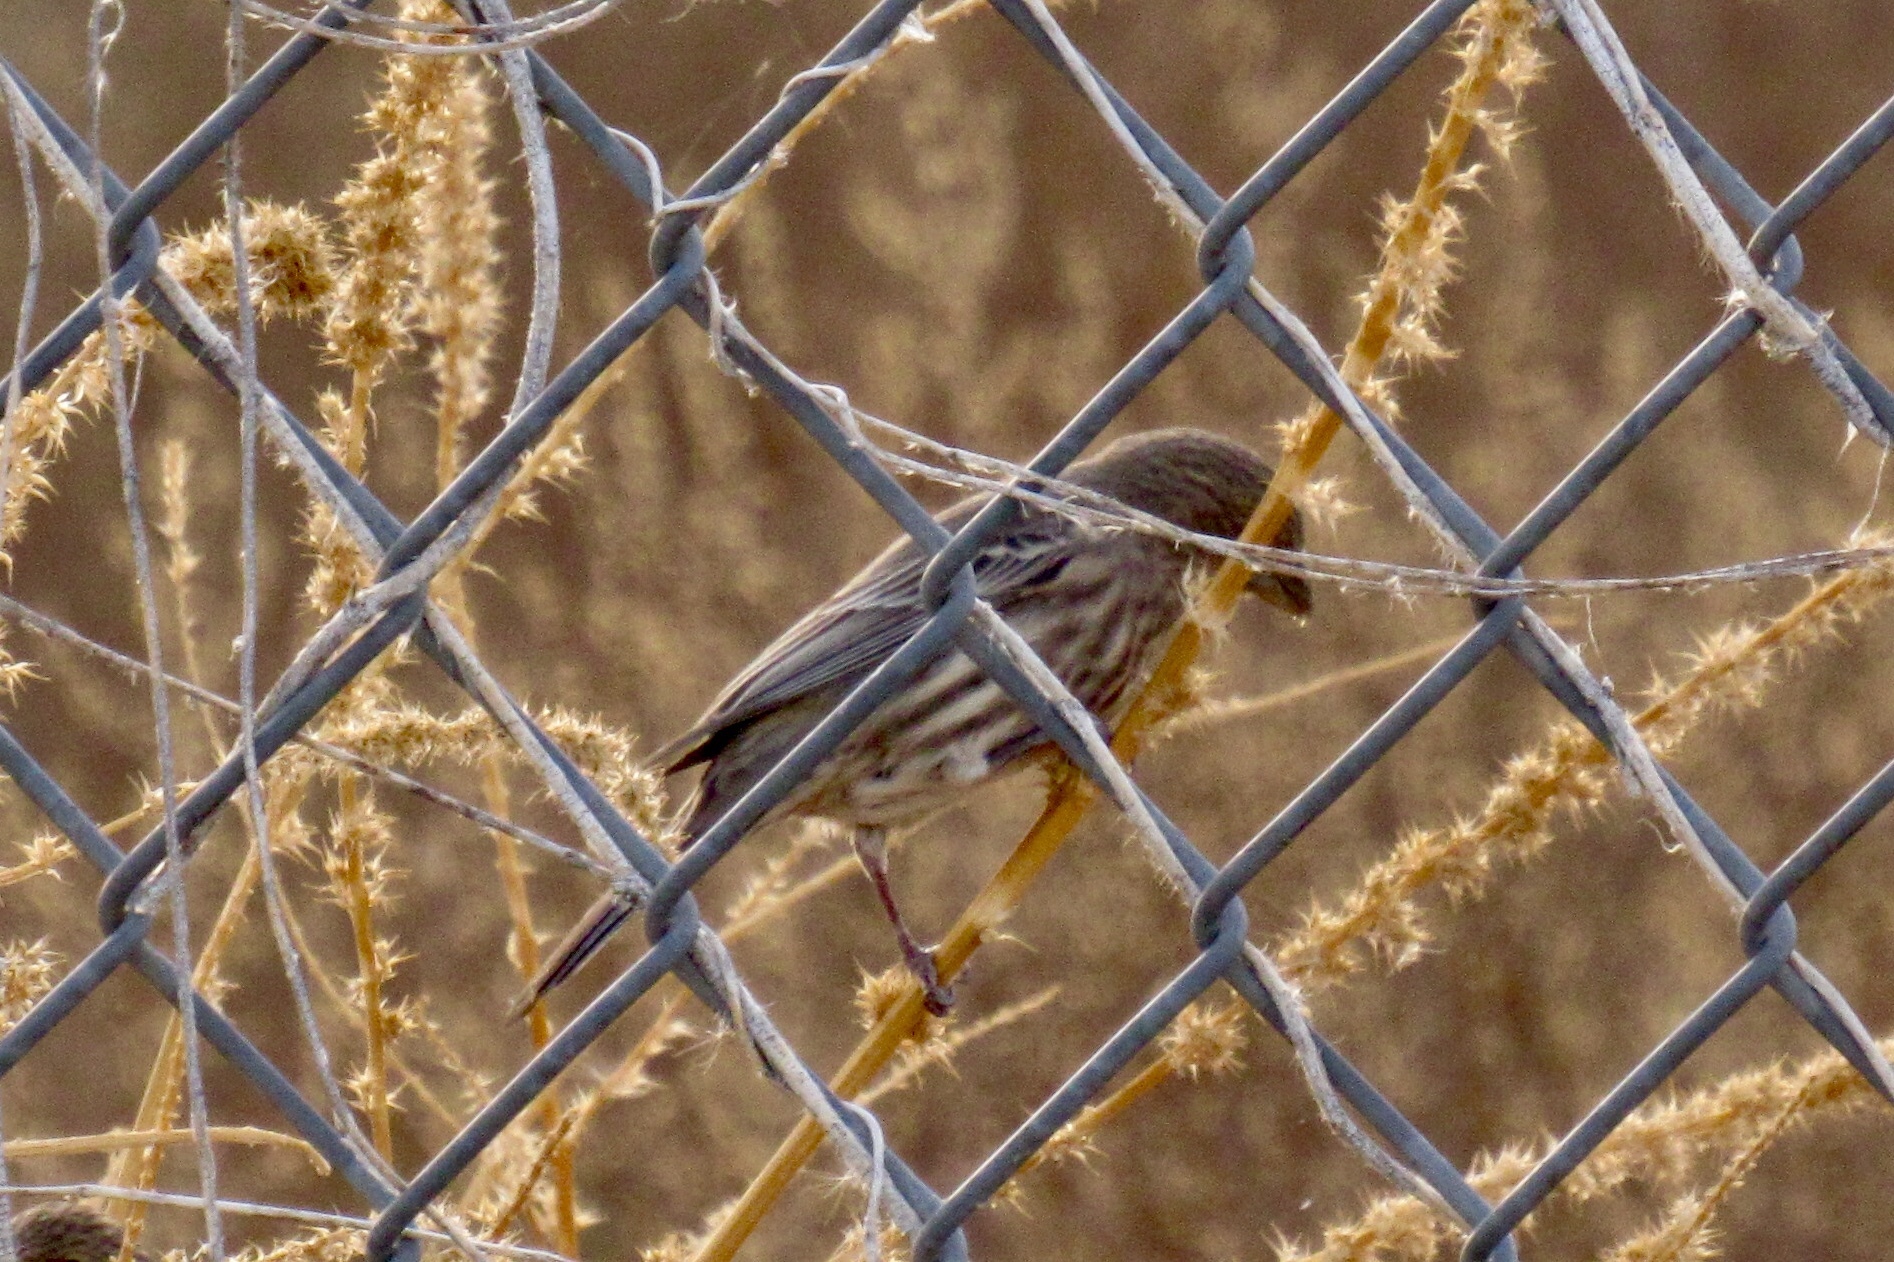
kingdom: Animalia
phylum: Chordata
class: Aves
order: Passeriformes
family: Fringillidae
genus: Haemorhous
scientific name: Haemorhous mexicanus
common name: House finch
